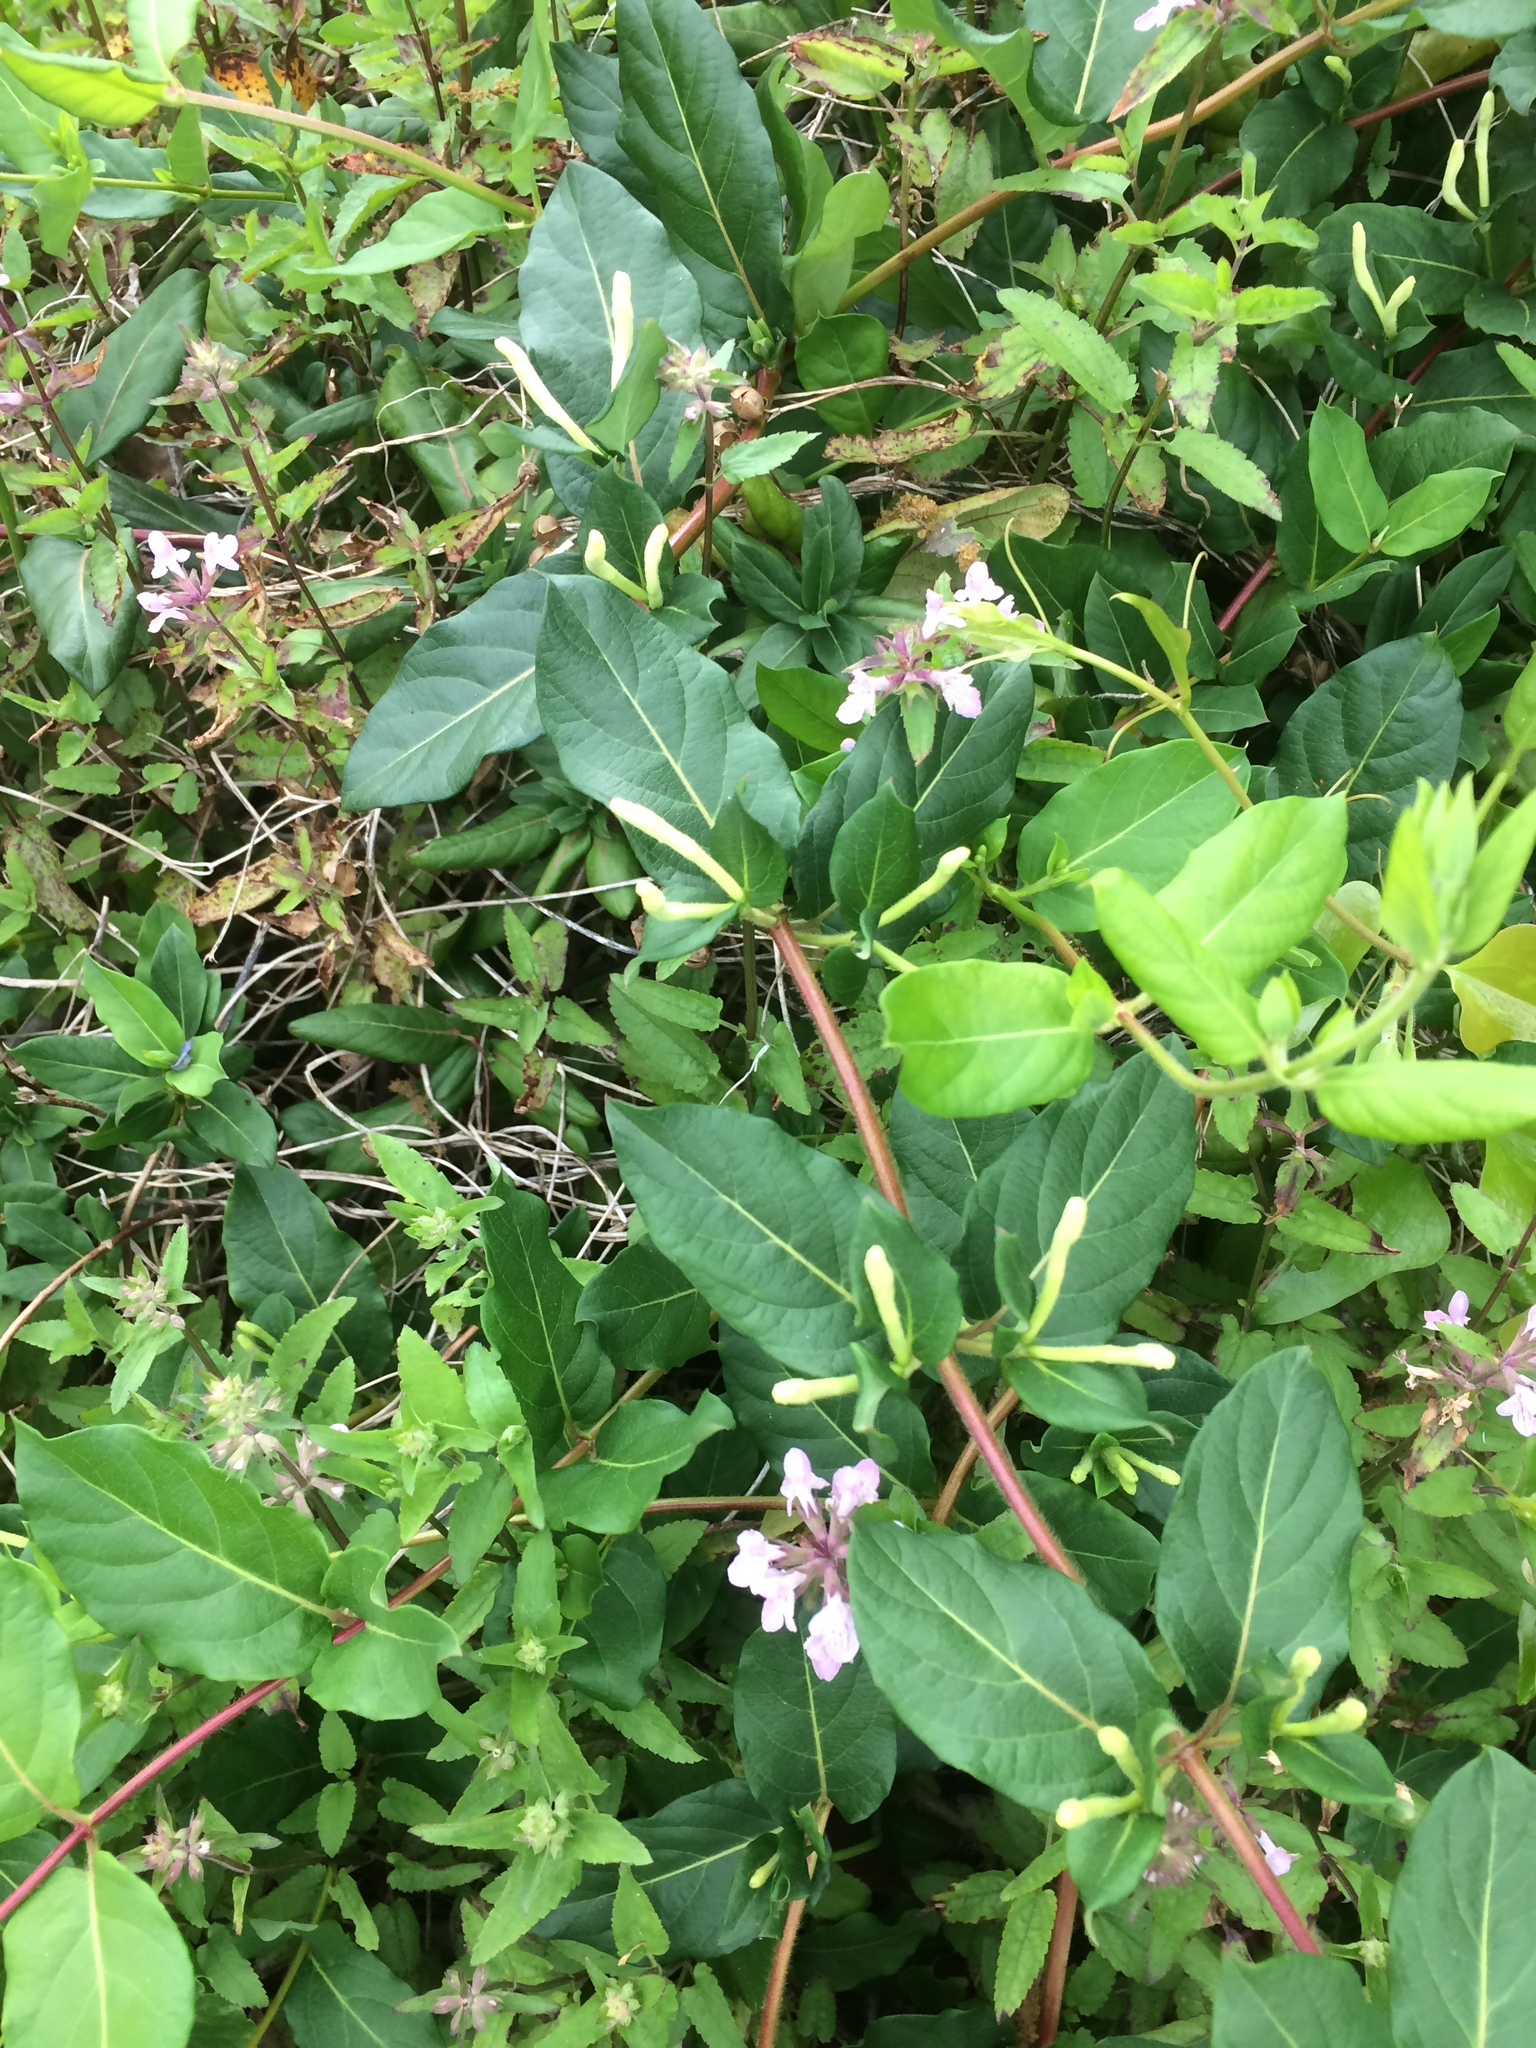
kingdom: Plantae
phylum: Tracheophyta
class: Magnoliopsida
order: Dipsacales
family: Caprifoliaceae
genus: Lonicera
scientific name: Lonicera japonica
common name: Japanese honeysuckle
